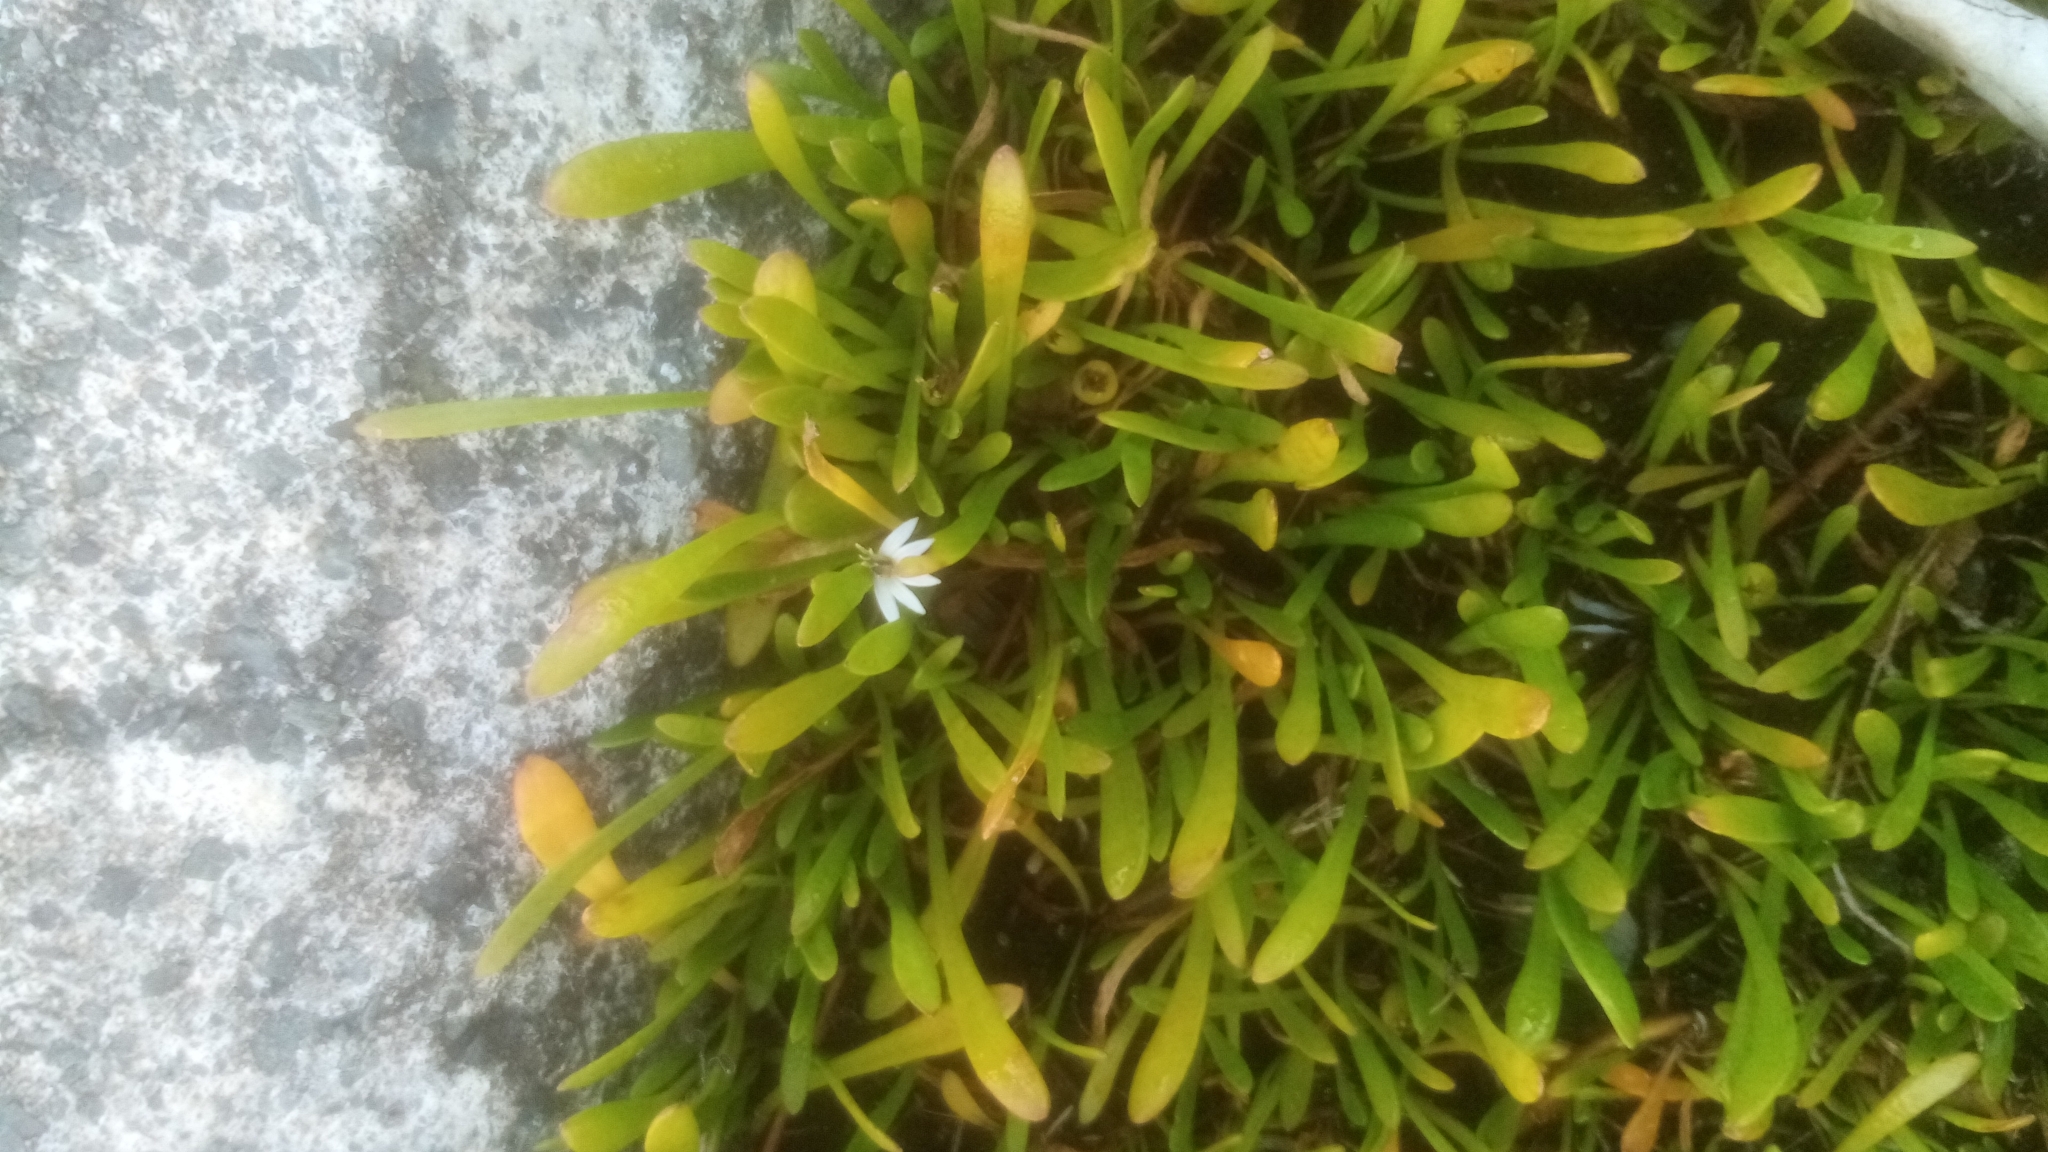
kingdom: Plantae
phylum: Tracheophyta
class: Magnoliopsida
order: Asterales
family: Goodeniaceae
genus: Goodenia
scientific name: Goodenia radicans
